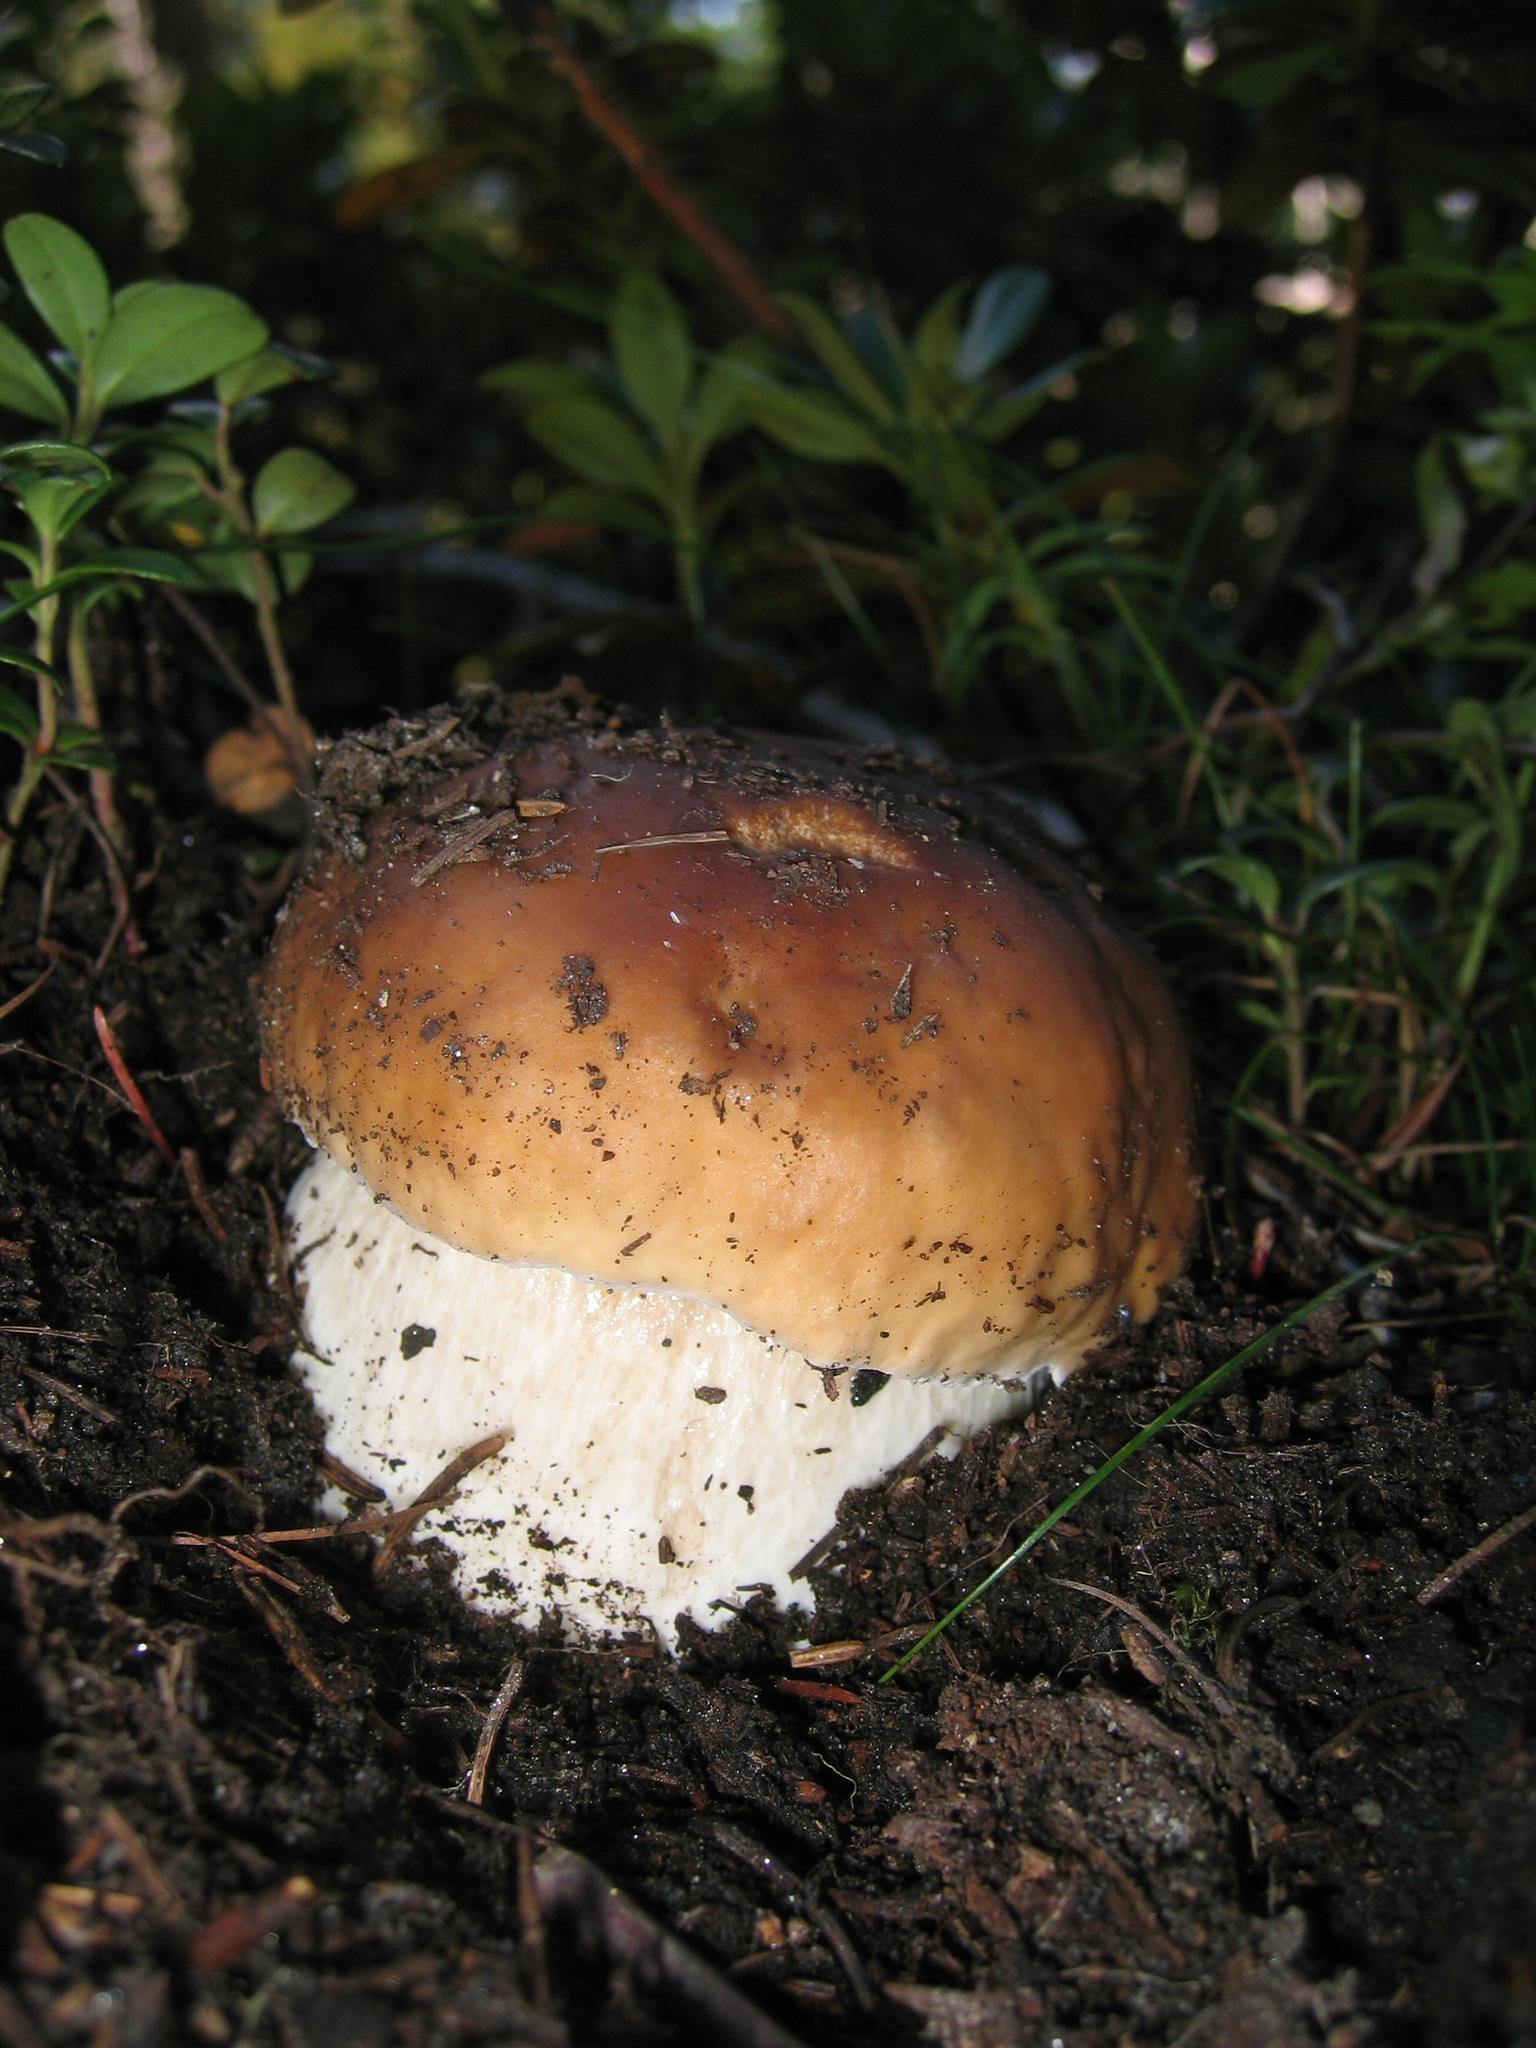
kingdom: Fungi
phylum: Basidiomycota
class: Agaricomycetes
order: Boletales
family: Boletaceae
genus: Boletus
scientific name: Boletus edulis
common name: Cep
